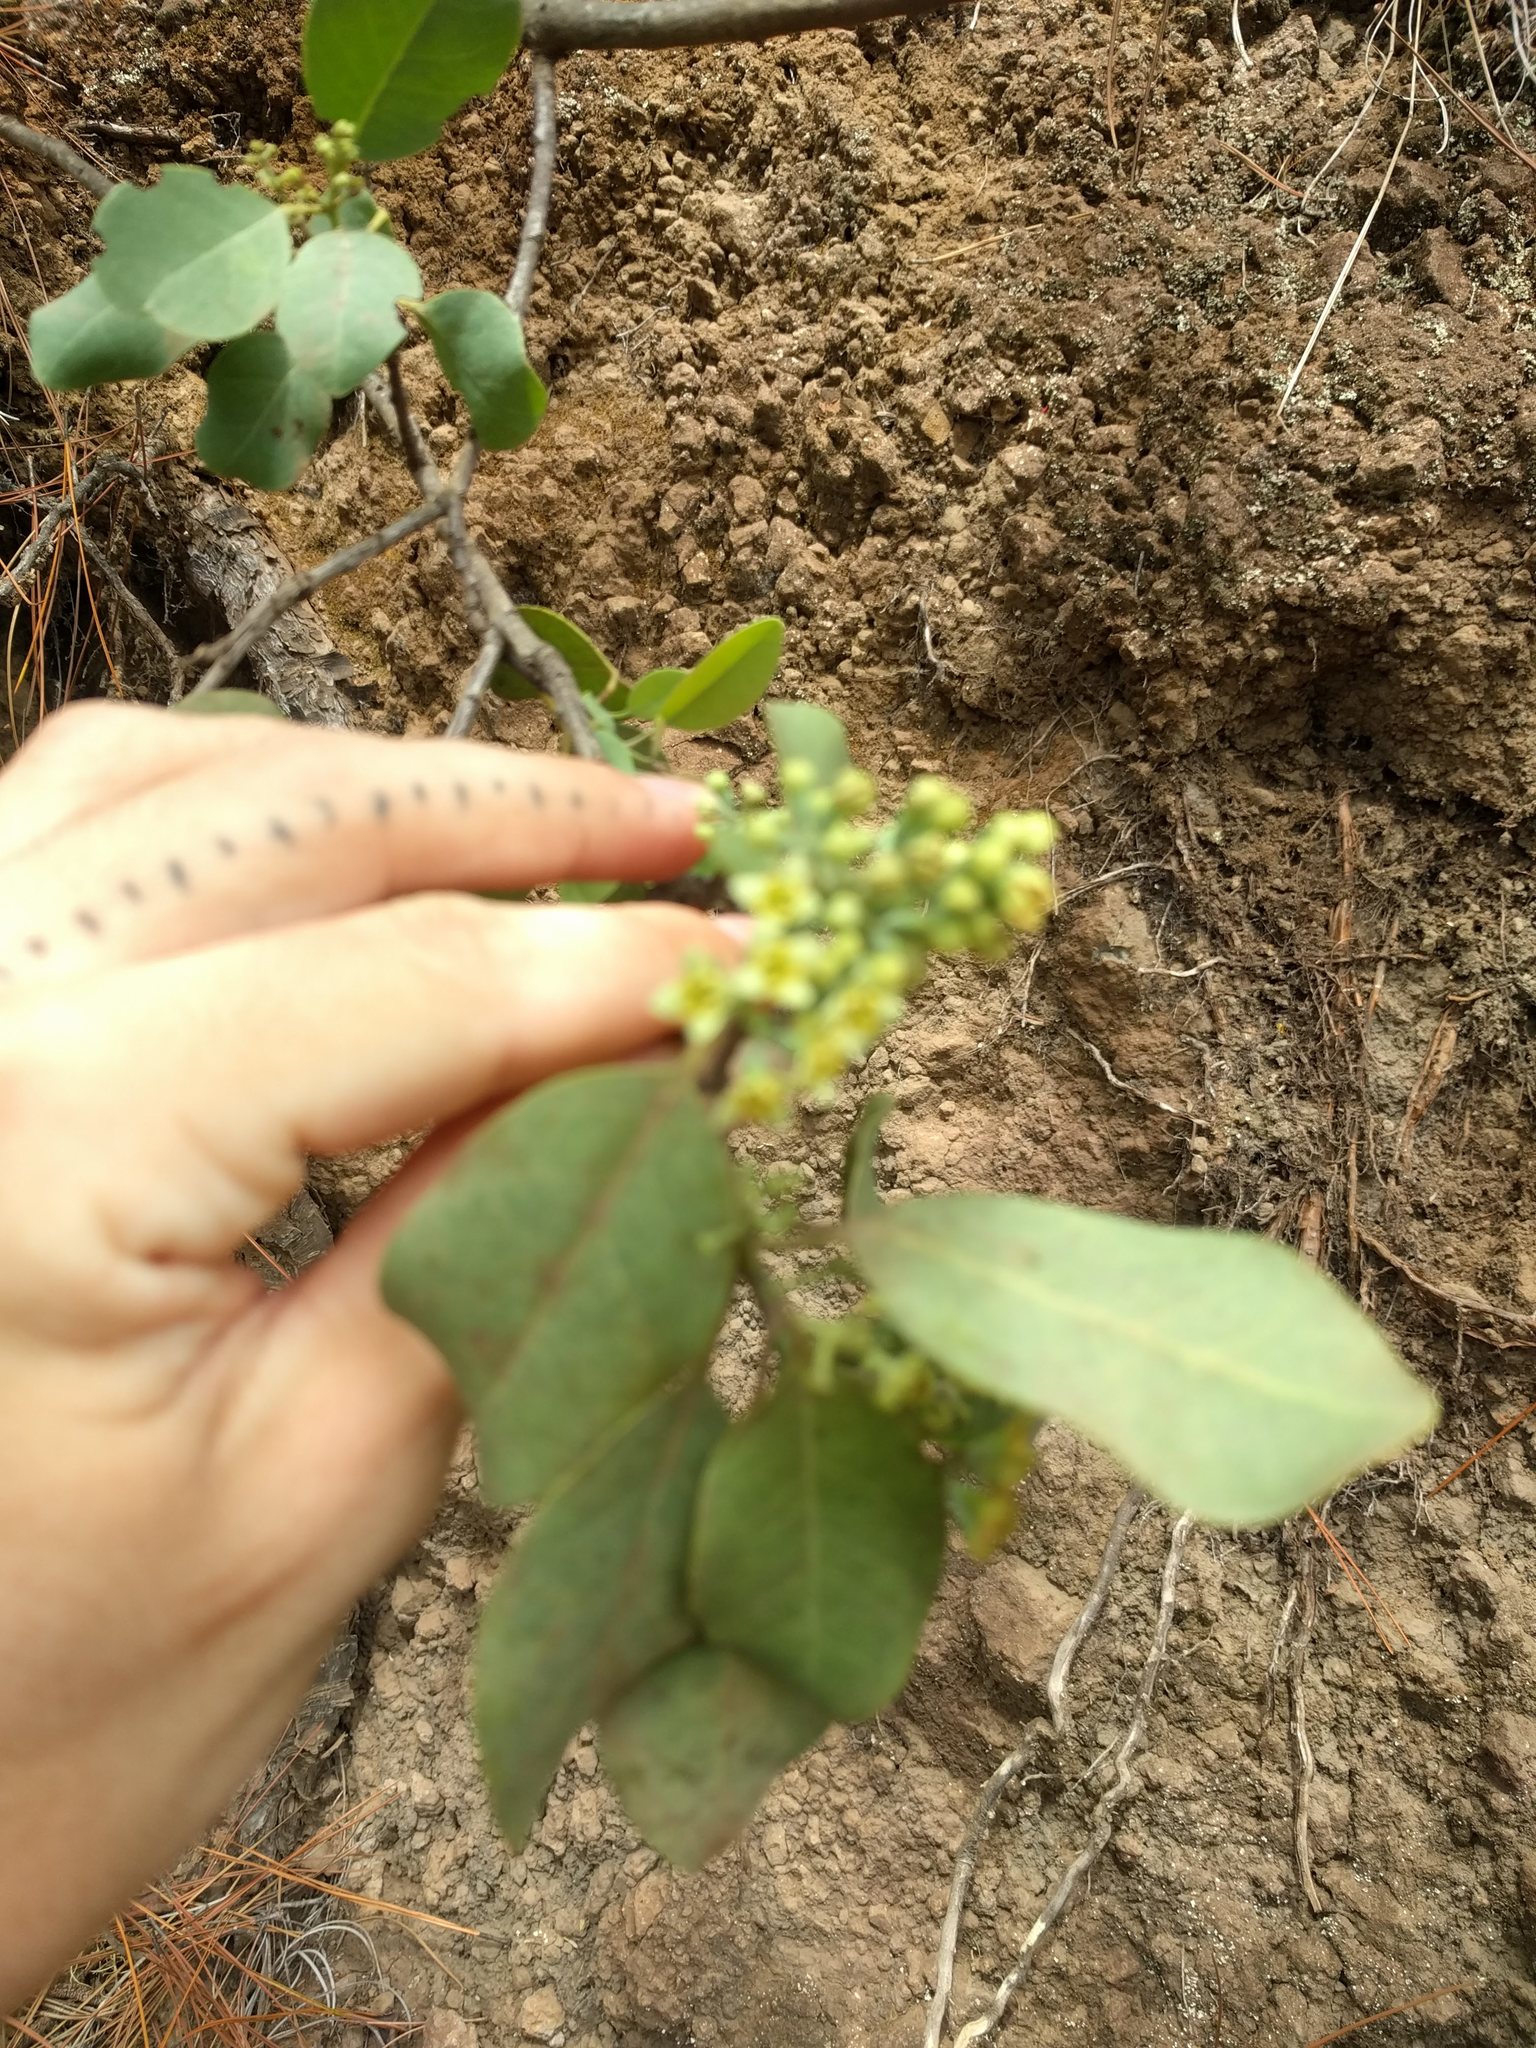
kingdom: Plantae
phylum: Tracheophyta
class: Magnoliopsida
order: Santalales
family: Santalaceae
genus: Santalum
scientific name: Santalum ellipticum
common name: Coast sandalwood
